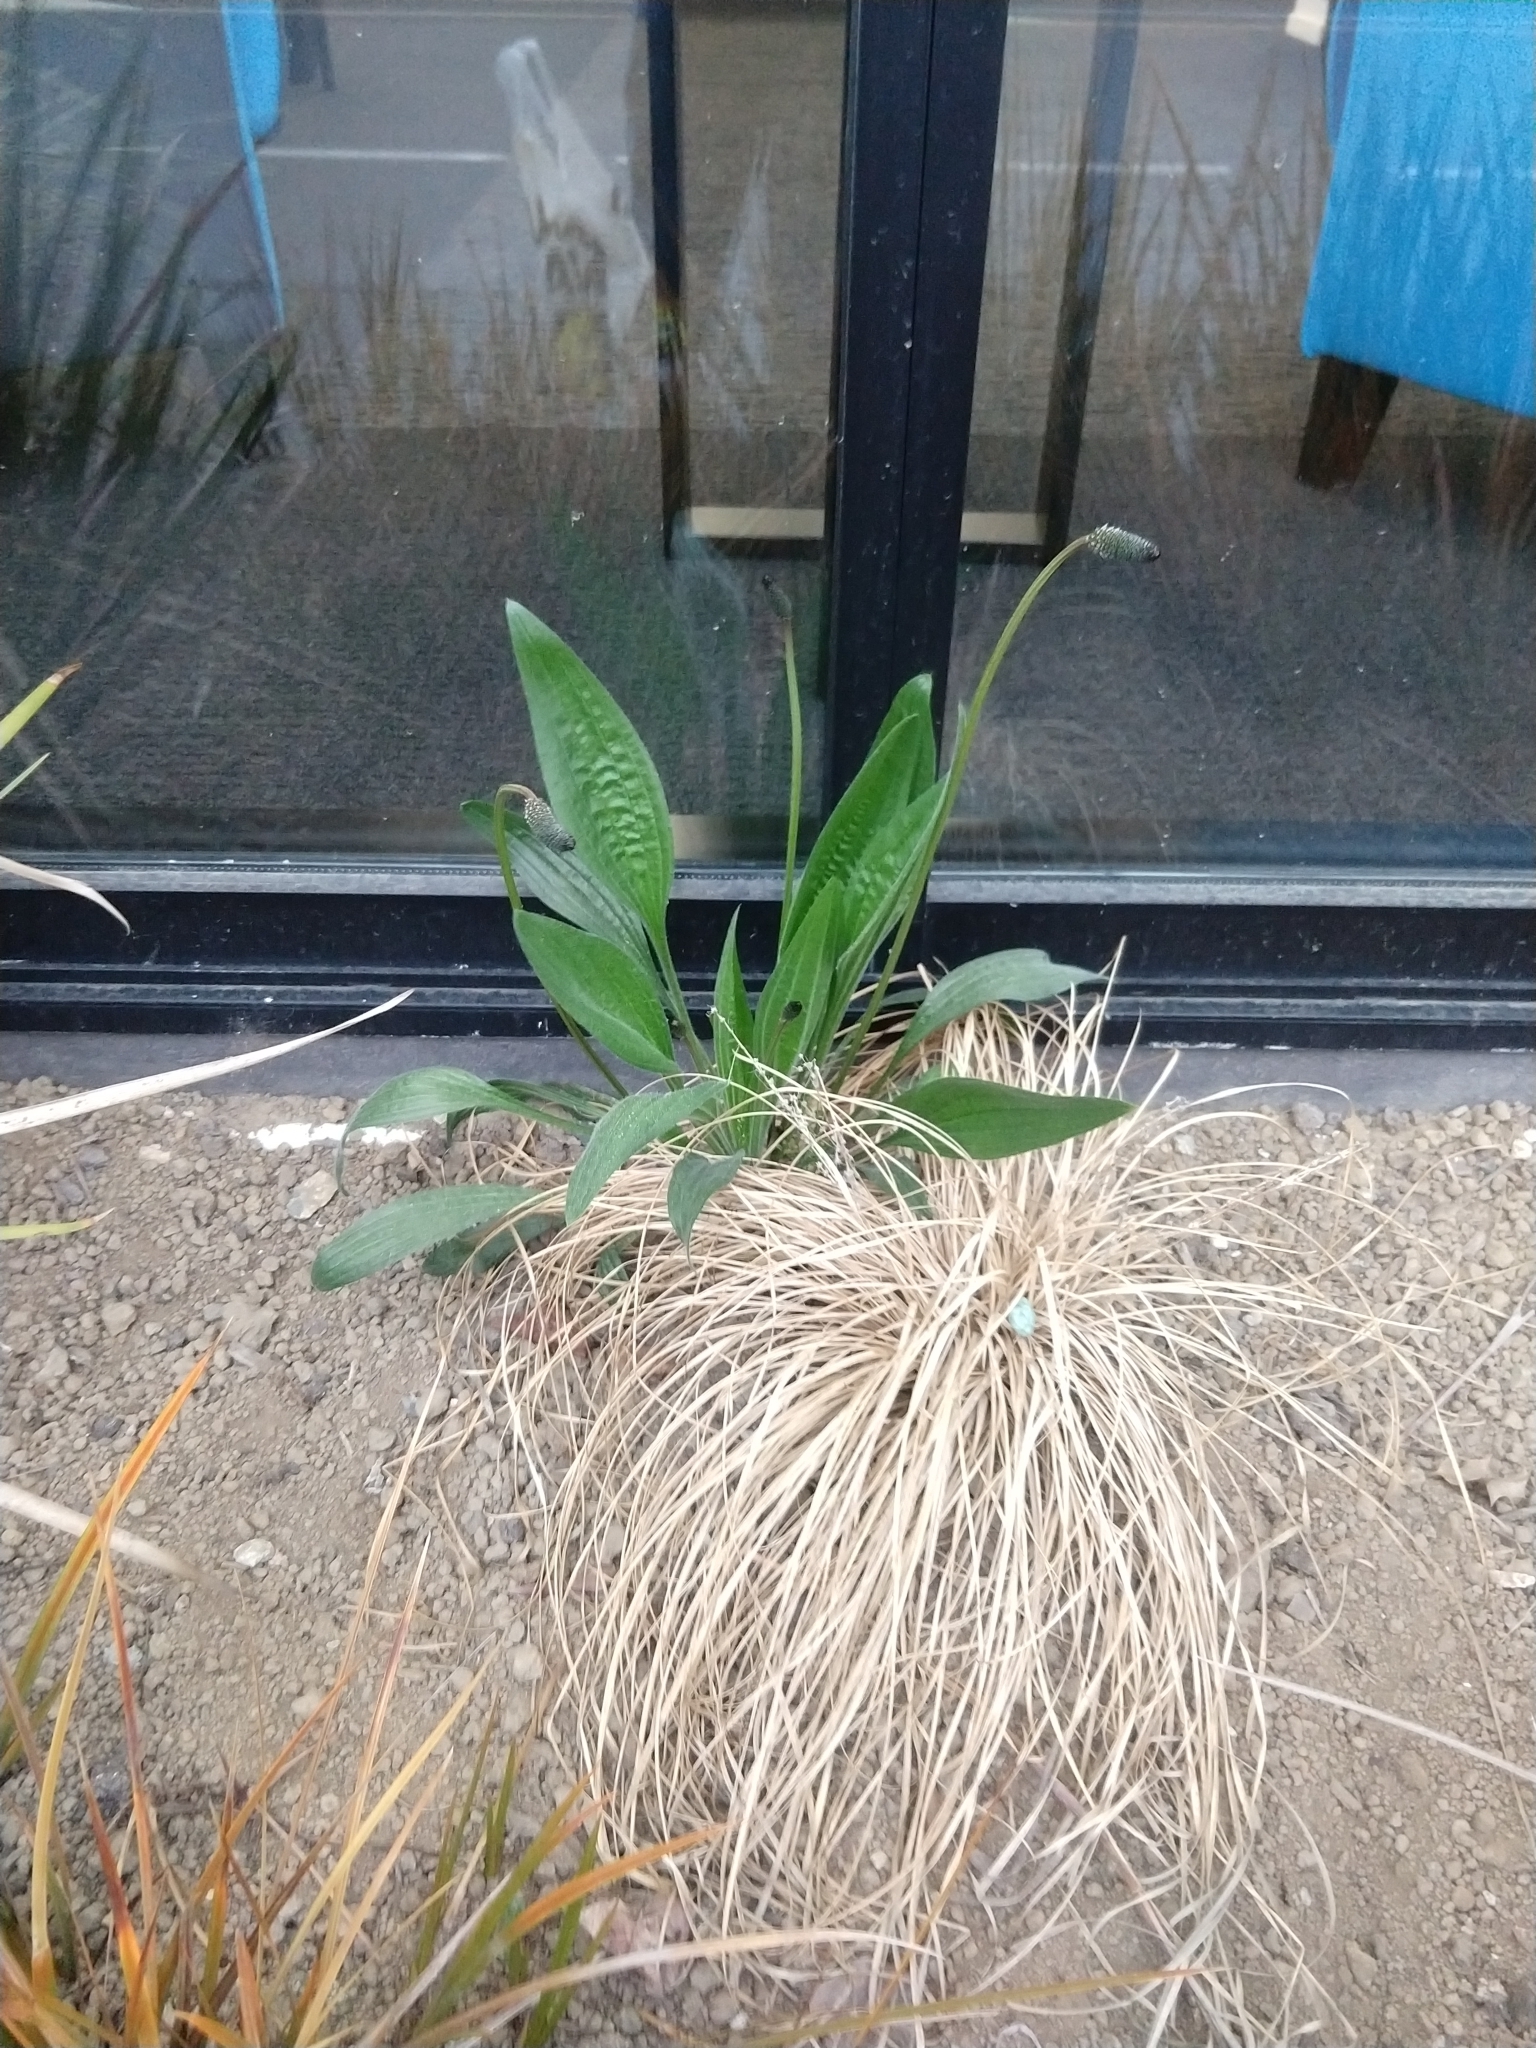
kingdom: Plantae
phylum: Tracheophyta
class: Magnoliopsida
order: Lamiales
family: Plantaginaceae
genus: Plantago
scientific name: Plantago lanceolata
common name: Ribwort plantain
